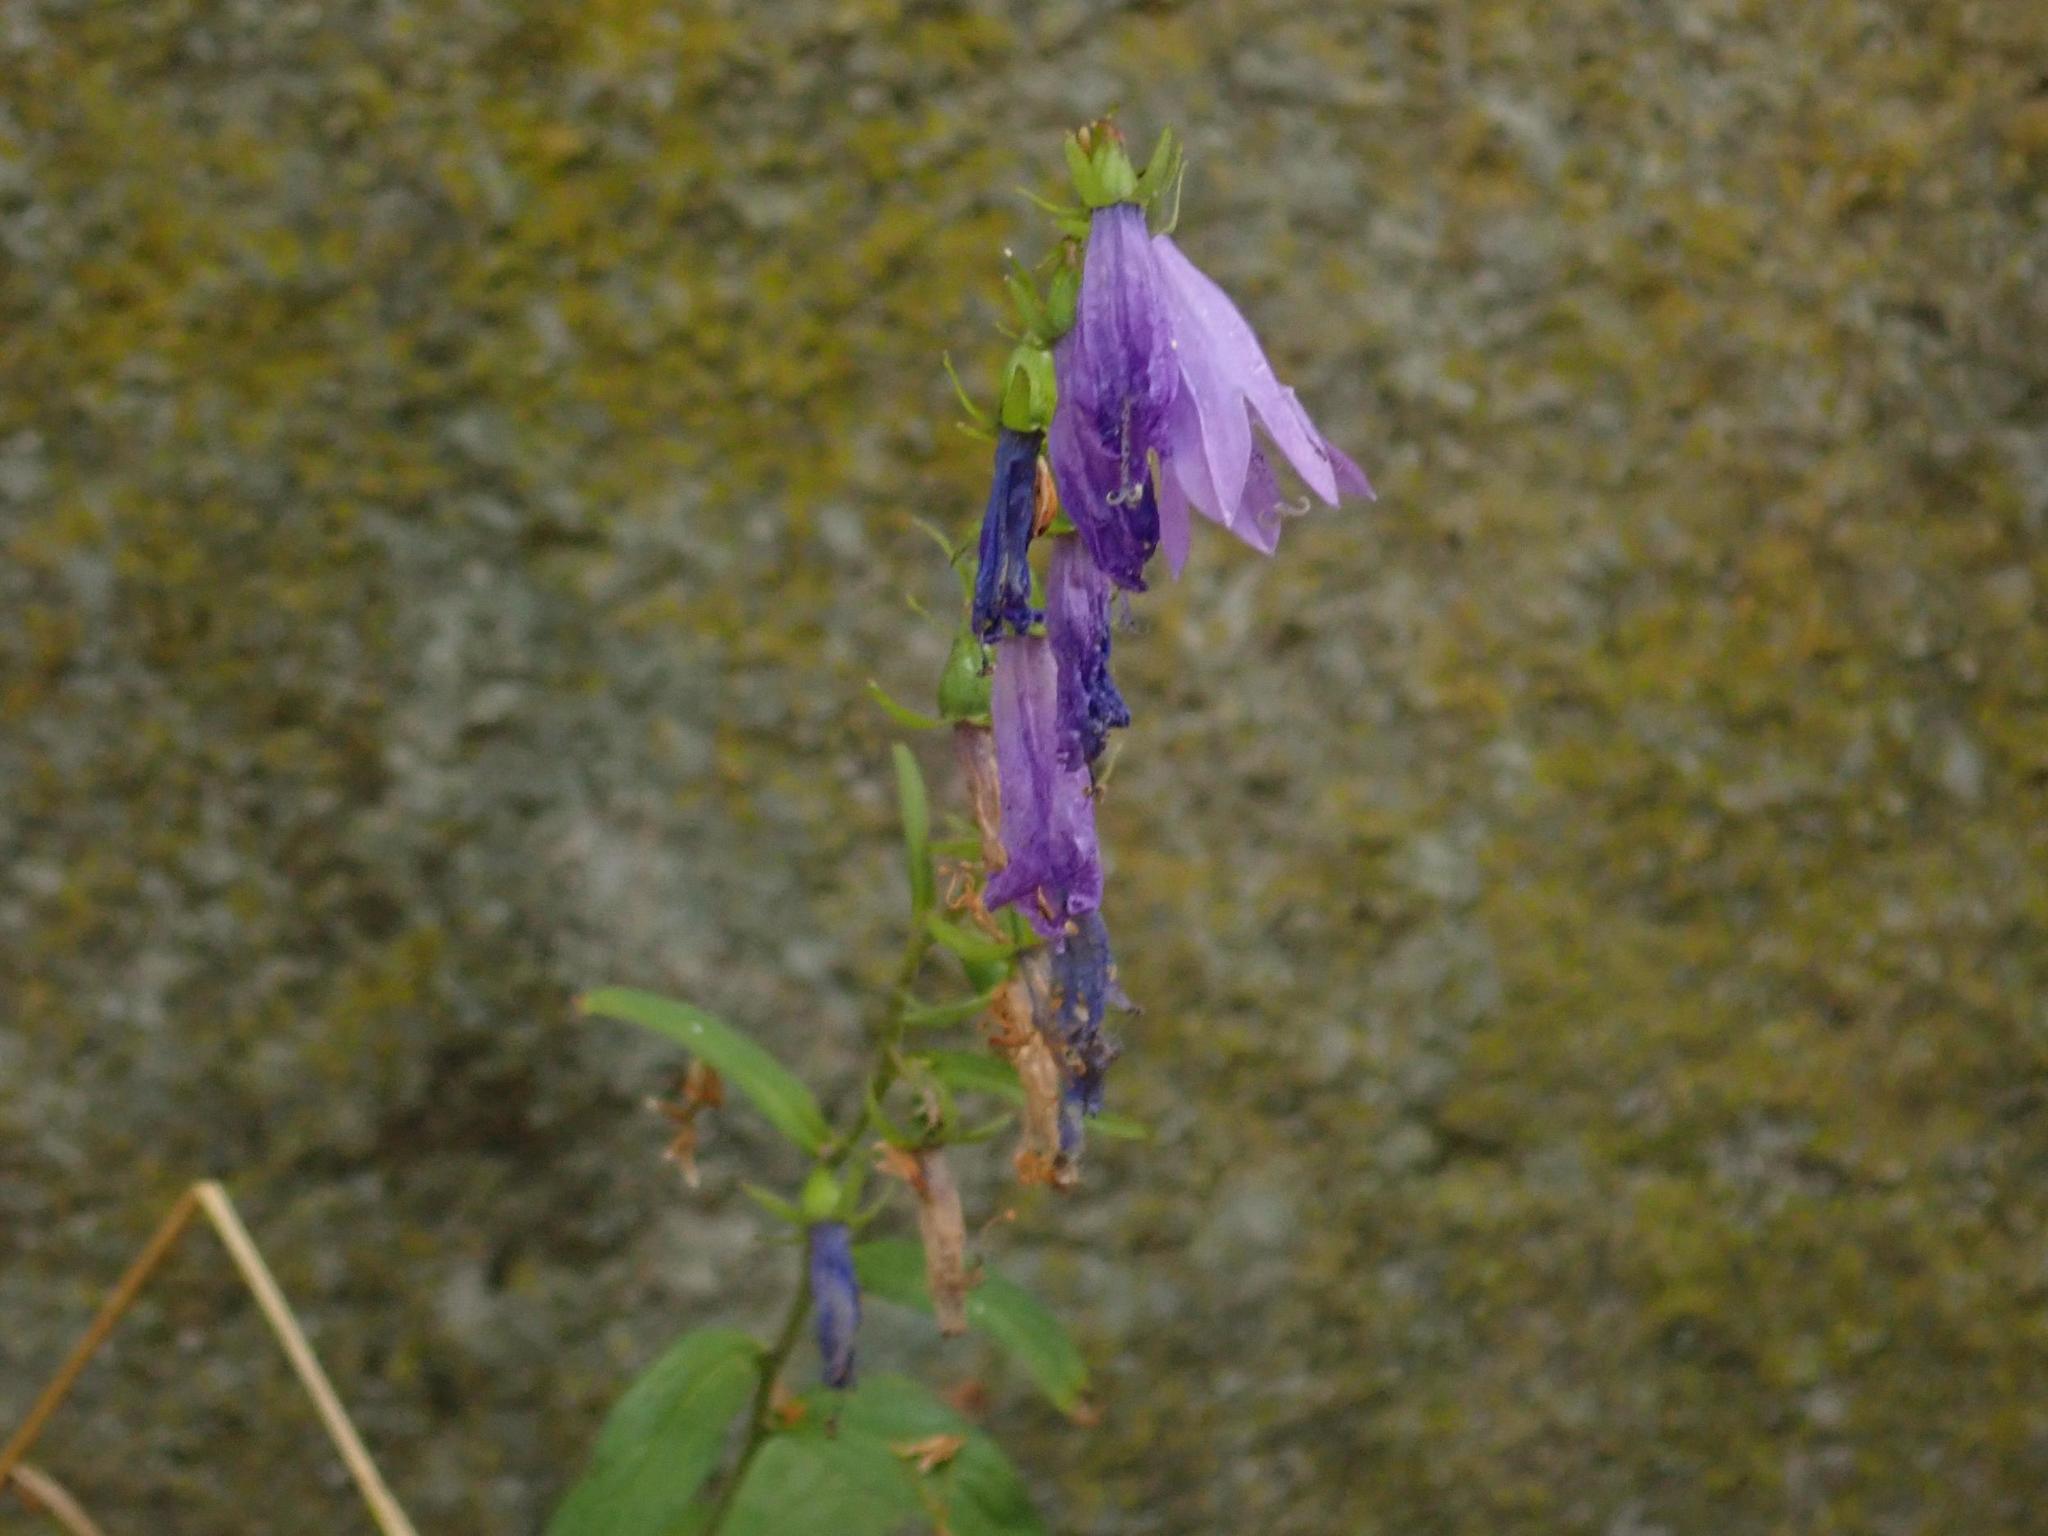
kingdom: Plantae
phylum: Tracheophyta
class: Magnoliopsida
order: Asterales
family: Campanulaceae
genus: Campanula
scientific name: Campanula rapunculoides
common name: Creeping bellflower
